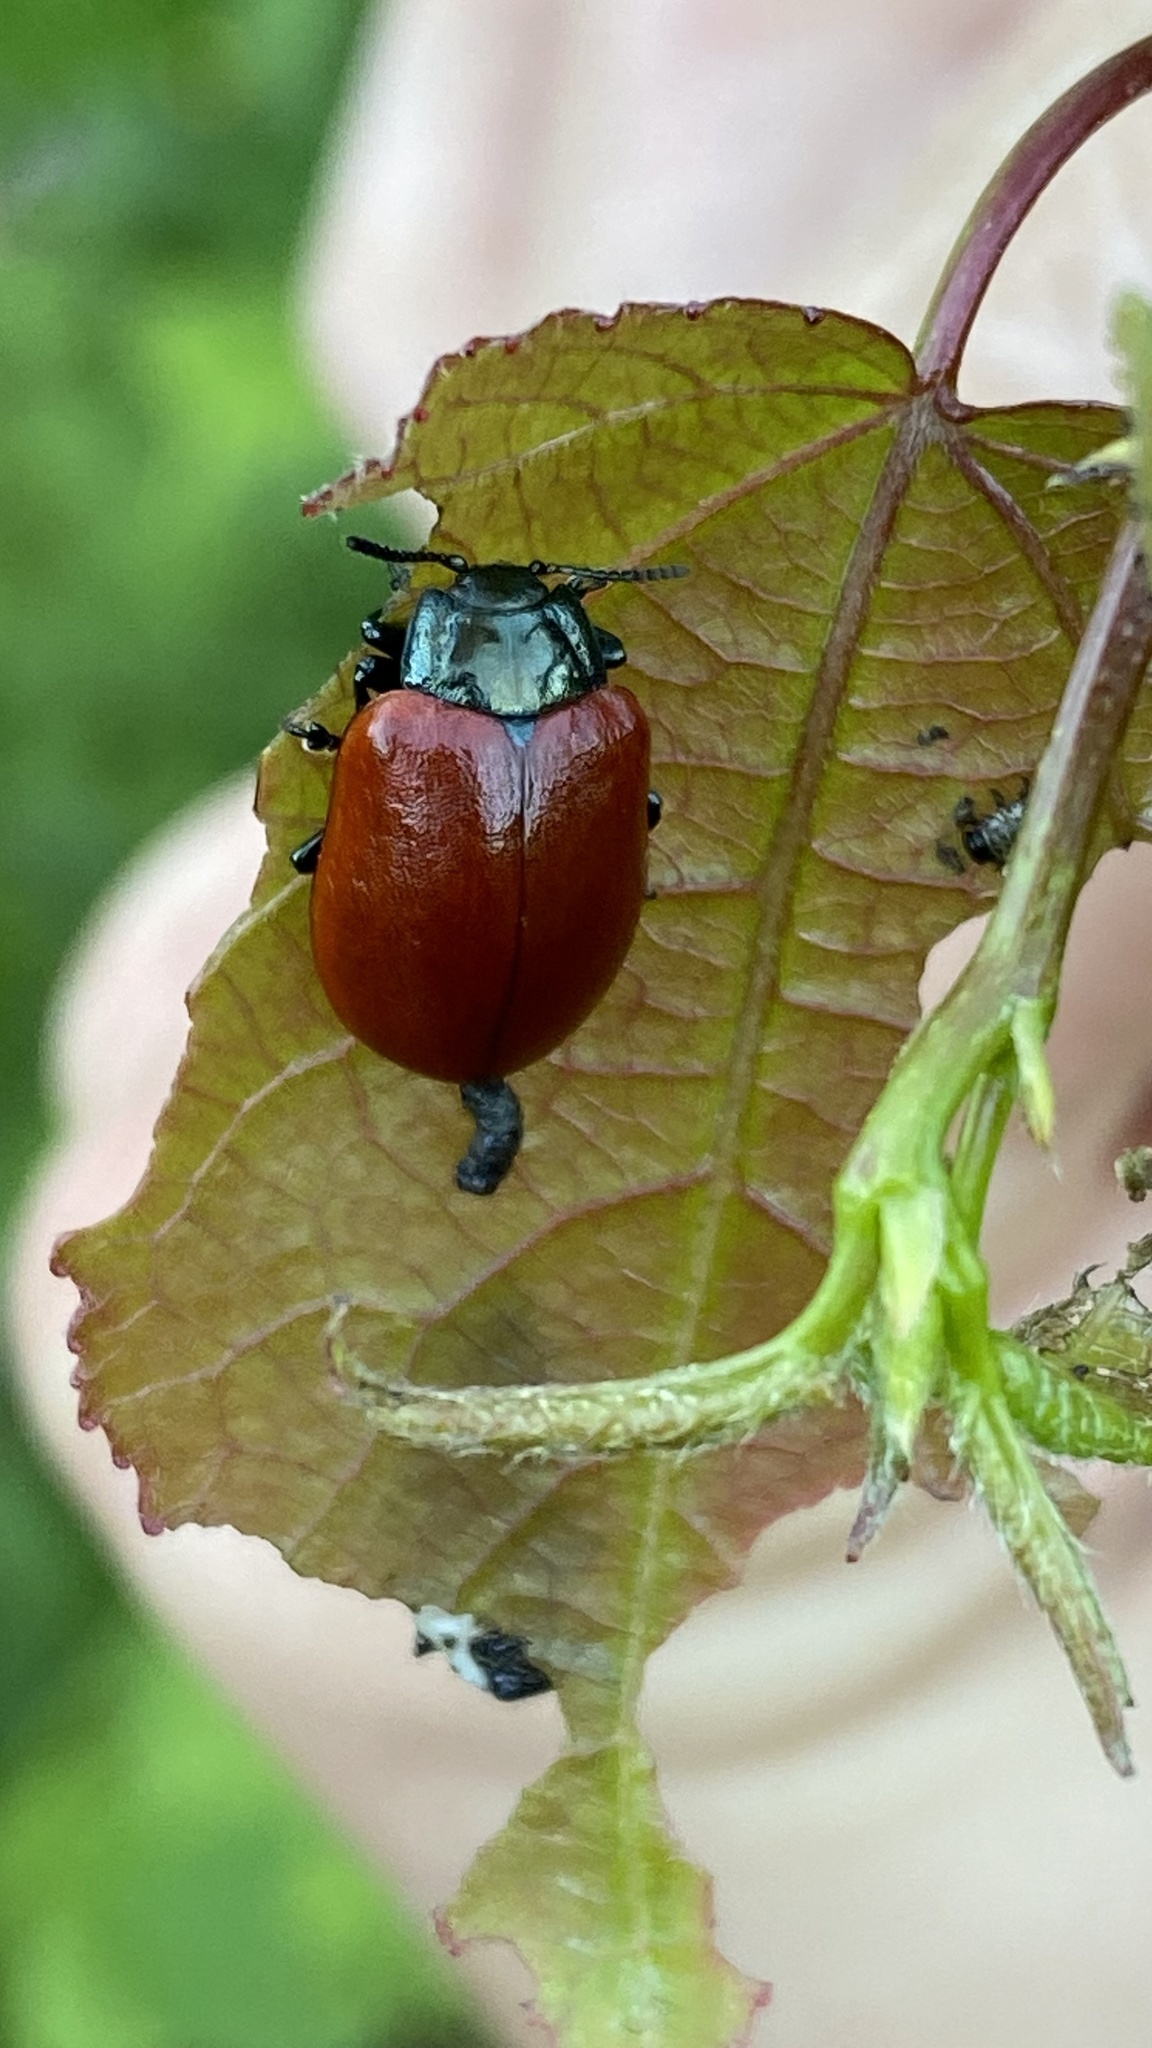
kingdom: Animalia
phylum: Arthropoda
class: Insecta
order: Coleoptera
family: Chrysomelidae
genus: Chrysomela
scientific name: Chrysomela populi
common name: Red poplar leaf beetle
